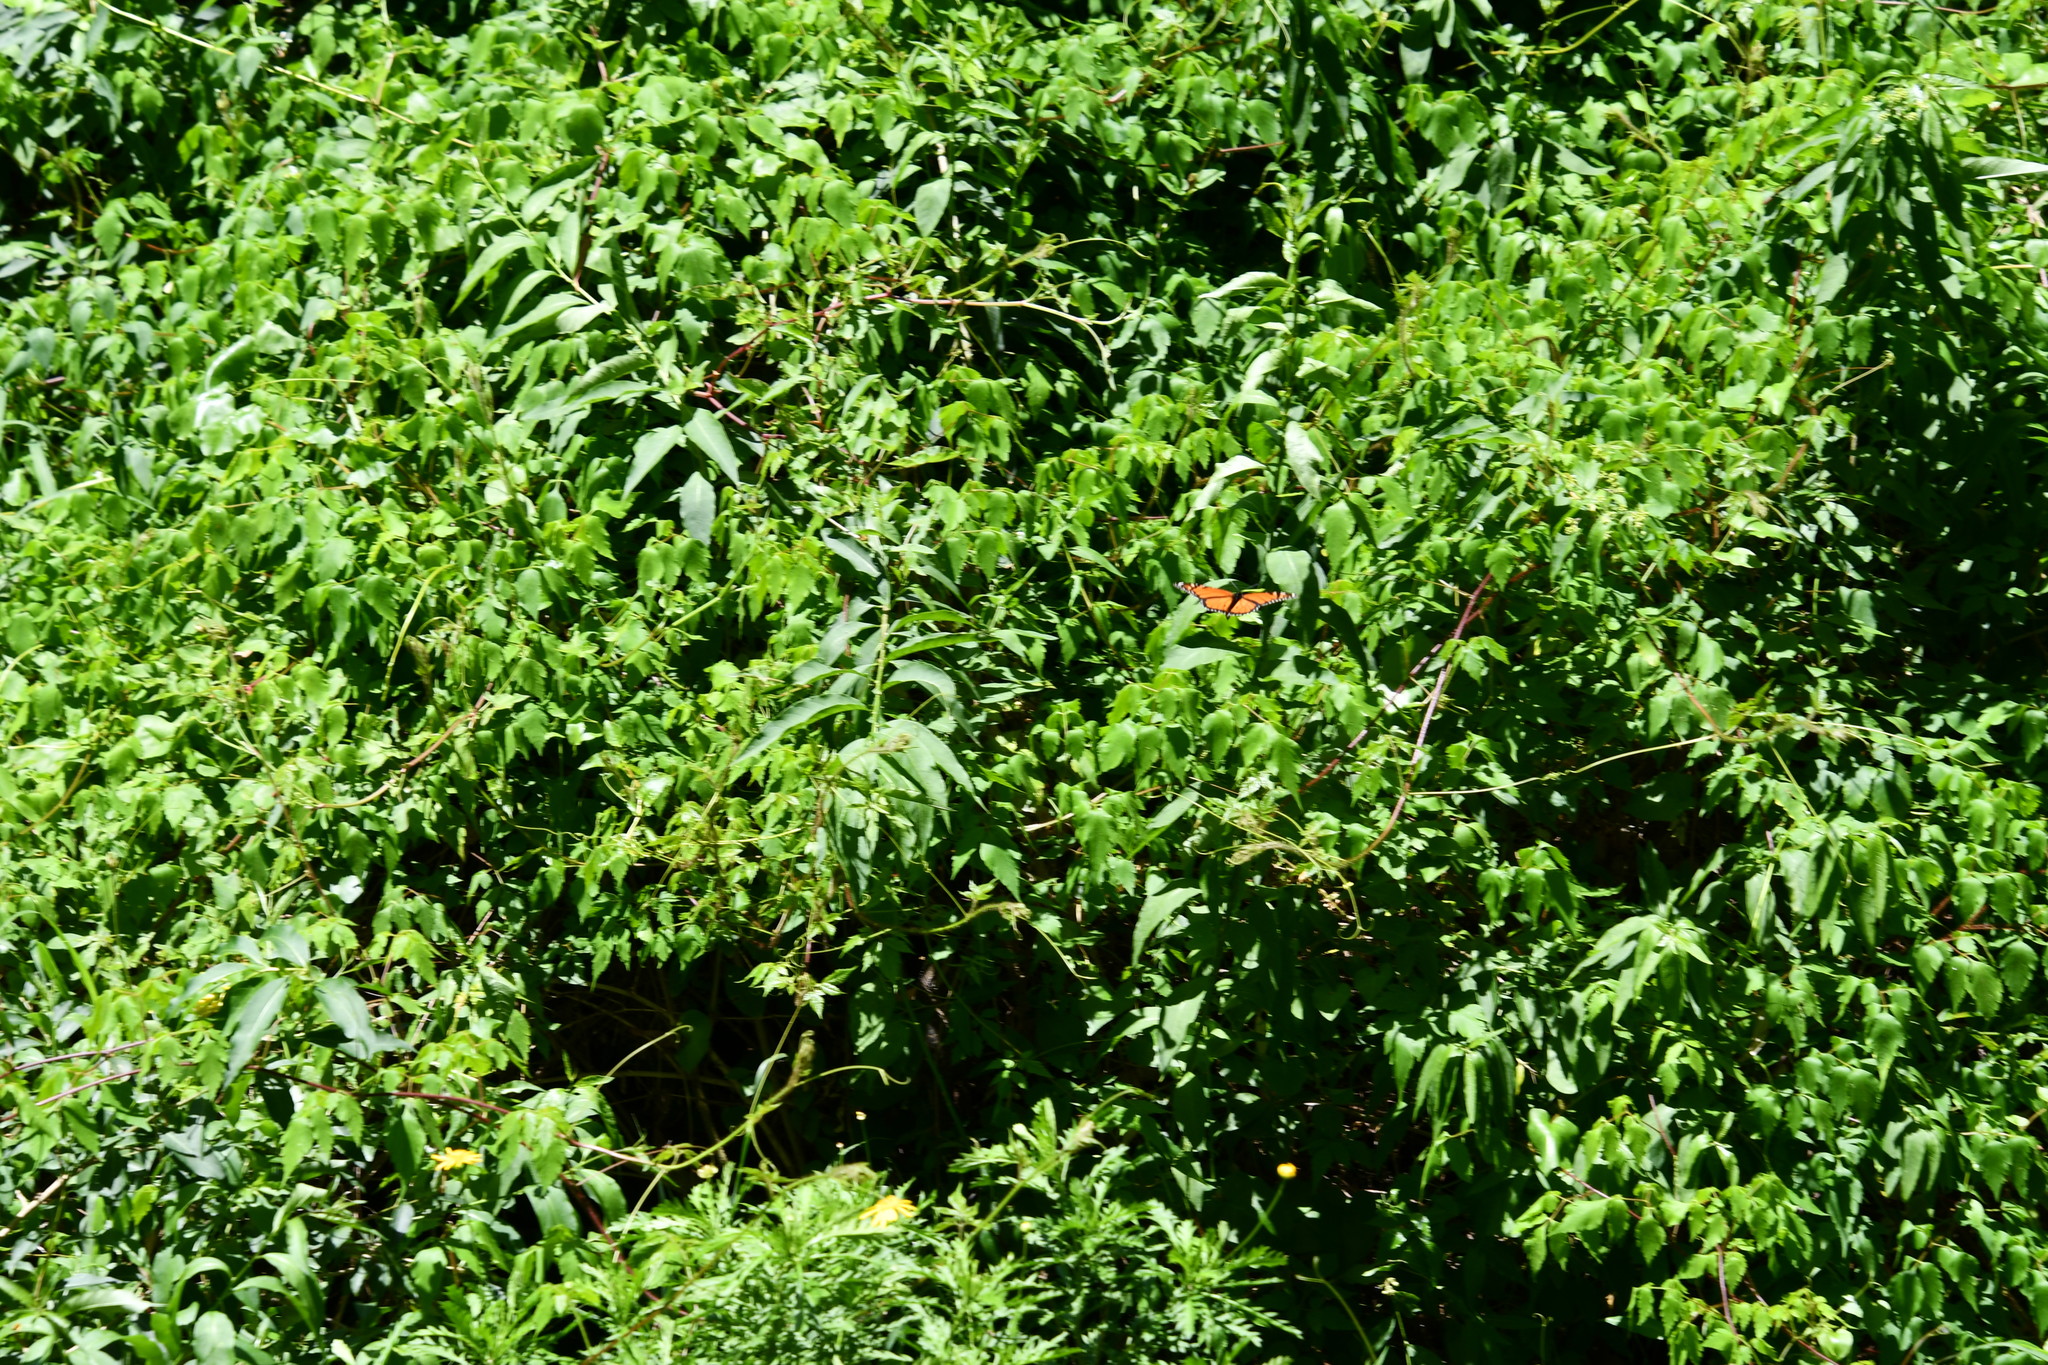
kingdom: Animalia
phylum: Arthropoda
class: Insecta
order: Lepidoptera
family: Nymphalidae
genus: Danaus
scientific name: Danaus plexippus
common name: Monarch
